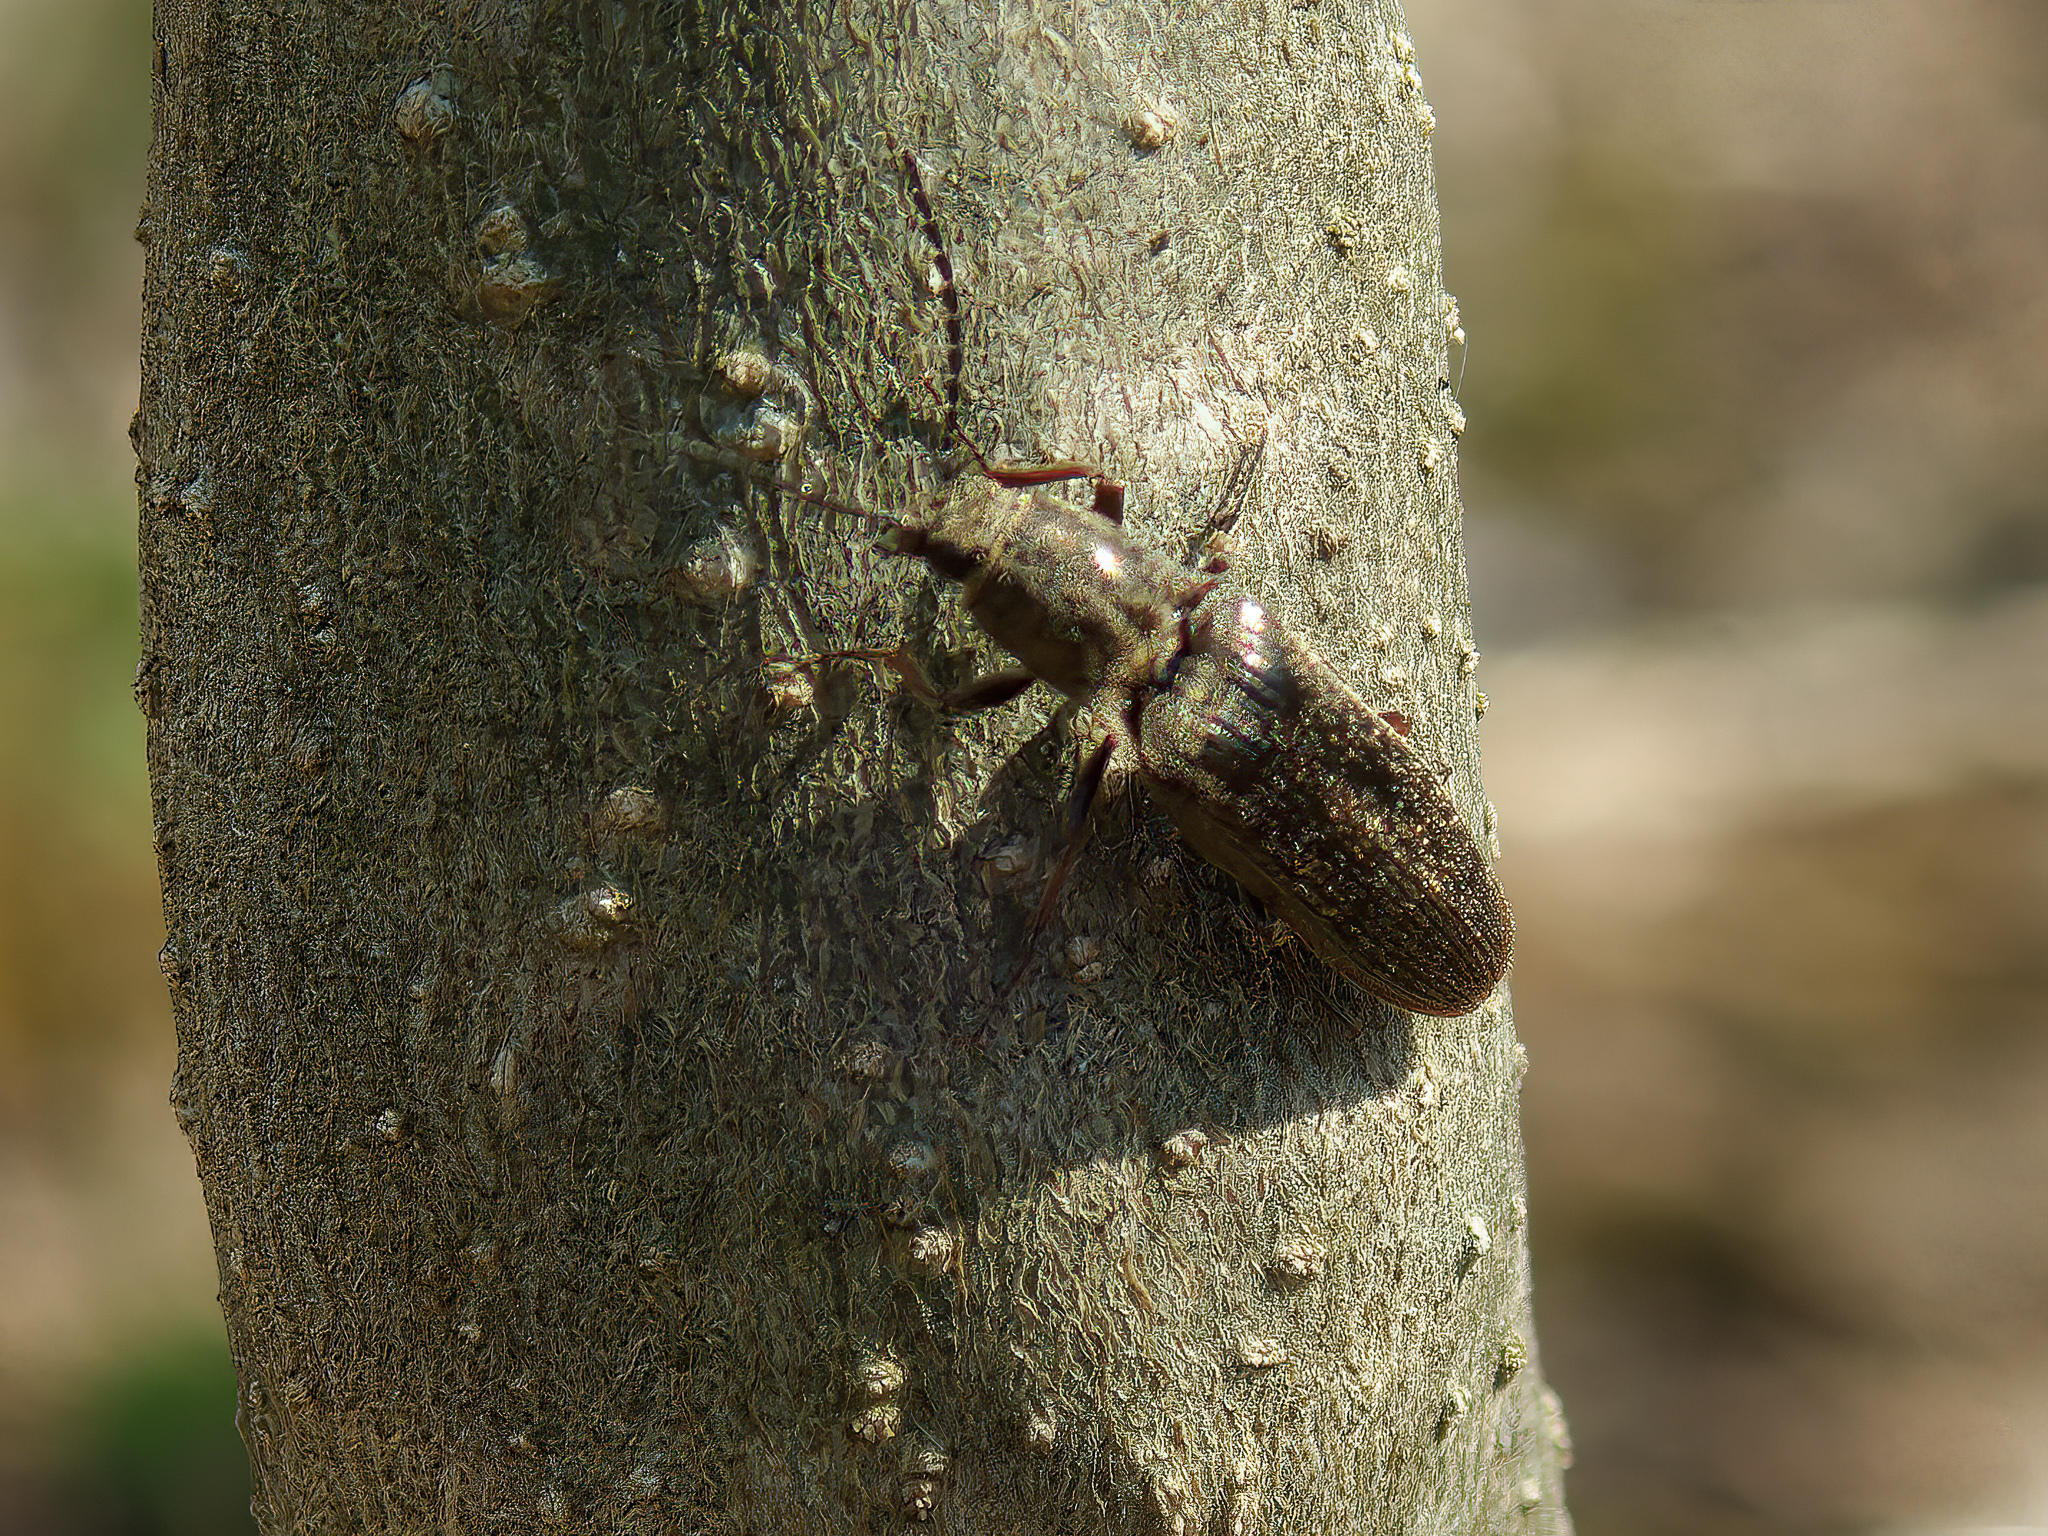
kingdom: Animalia
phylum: Arthropoda
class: Insecta
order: Coleoptera
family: Elateridae
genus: Sylvanelater
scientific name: Sylvanelater cylindriformis
